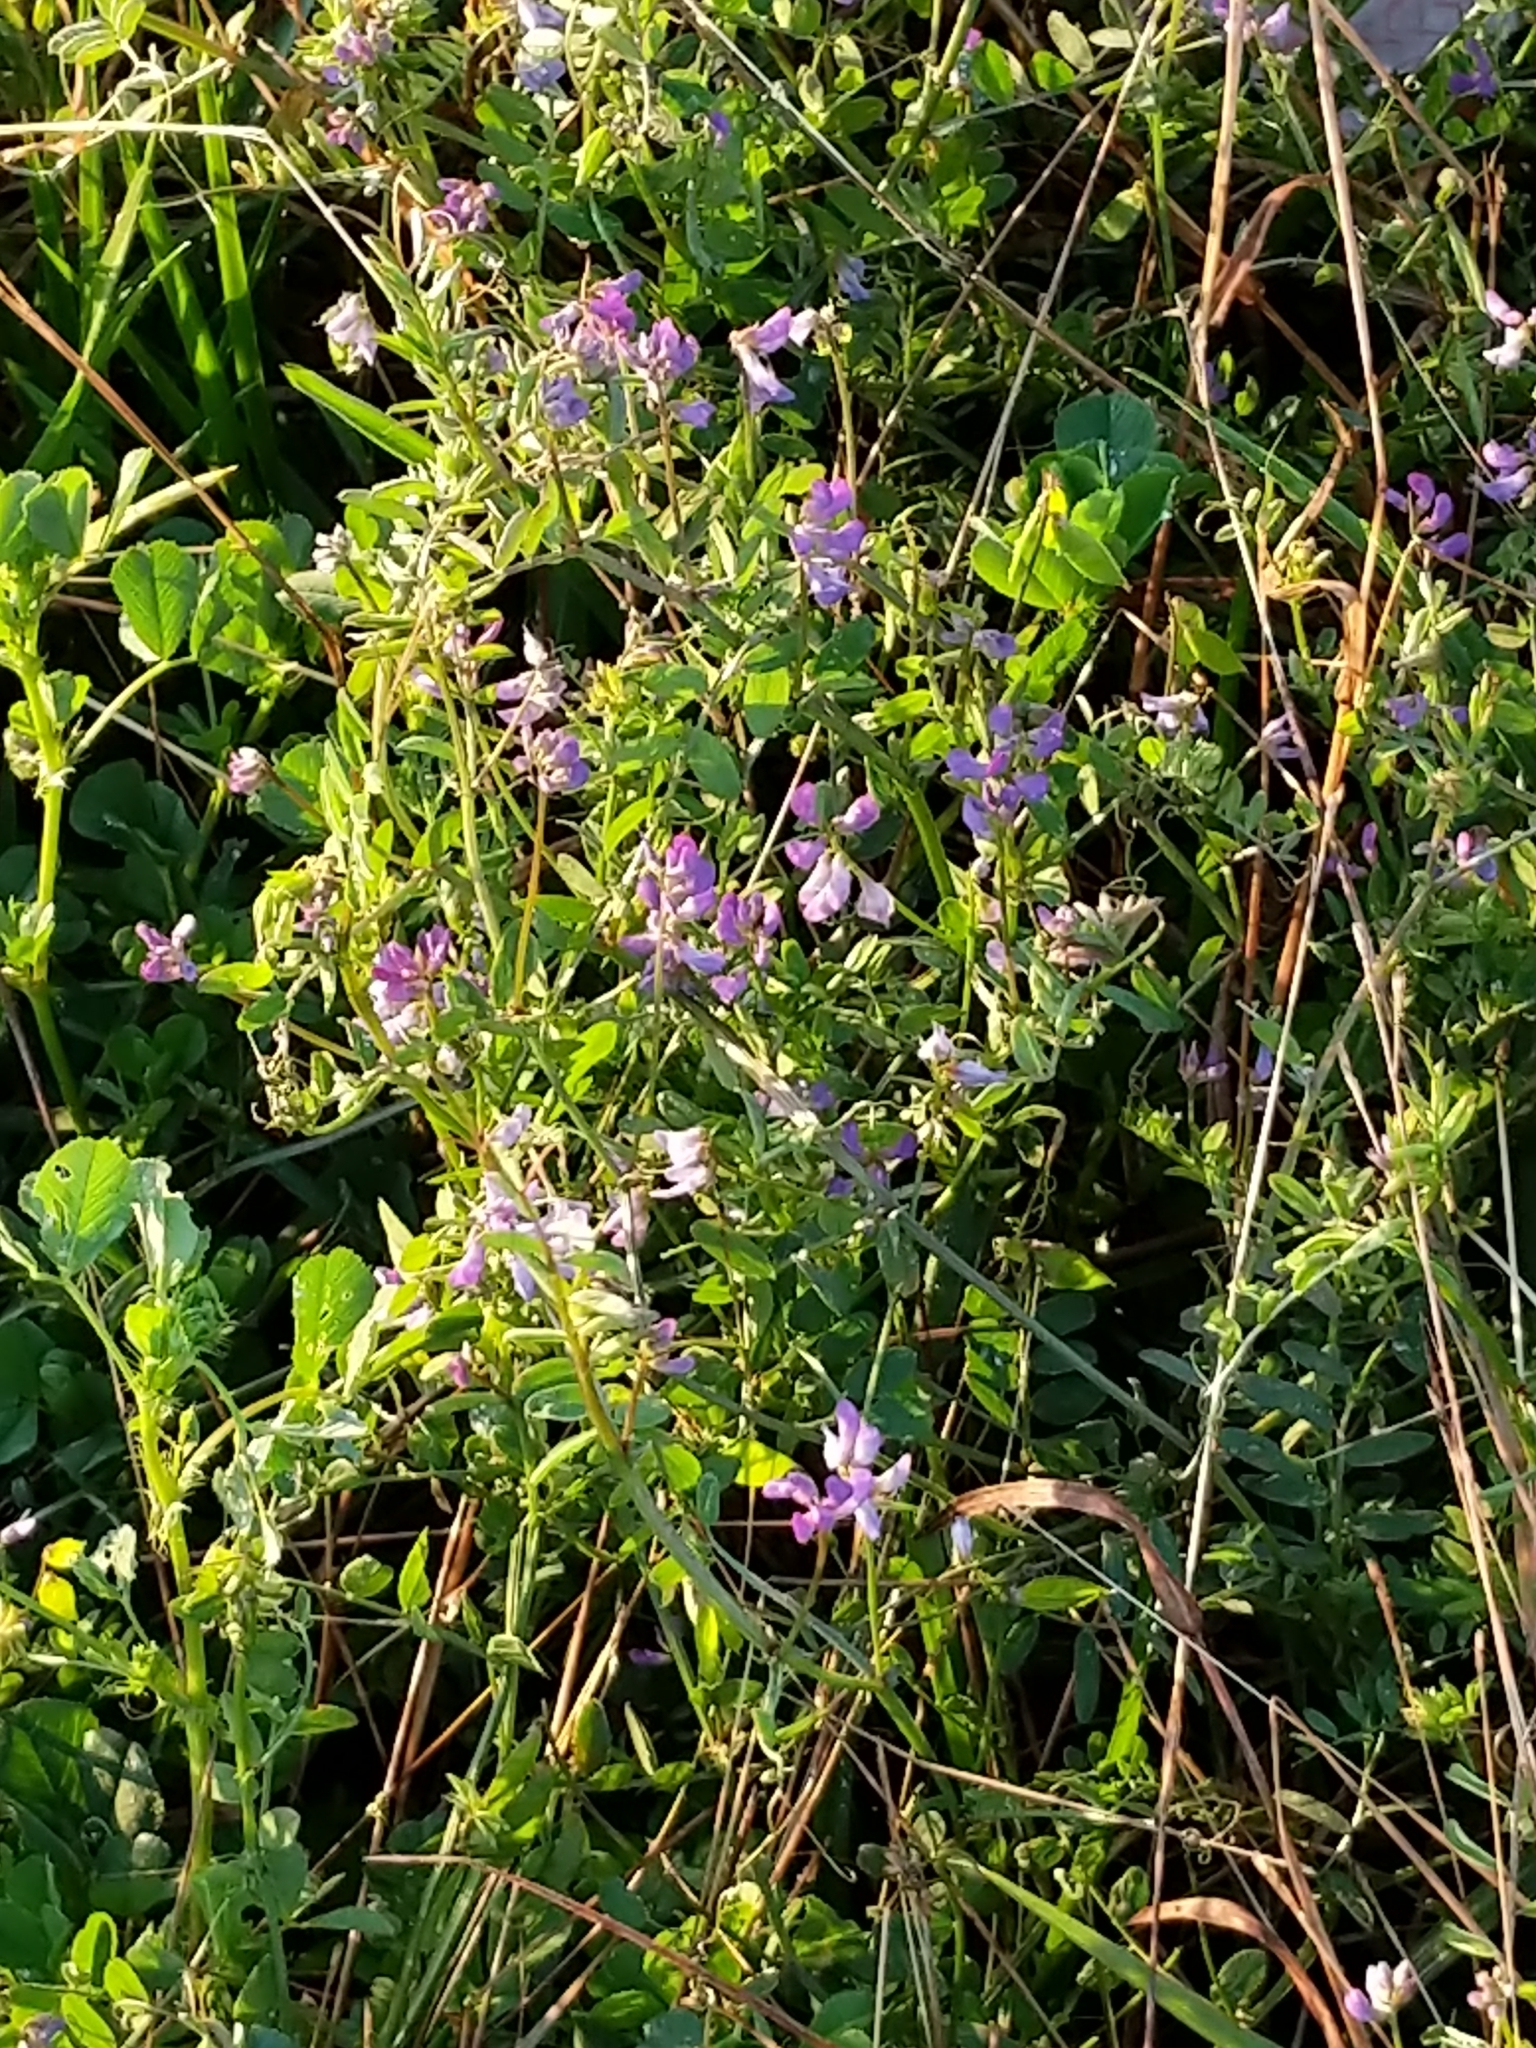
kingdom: Plantae
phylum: Tracheophyta
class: Magnoliopsida
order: Fabales
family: Fabaceae
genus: Vicia
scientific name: Vicia ludoviciana
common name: Louisiana vetch
